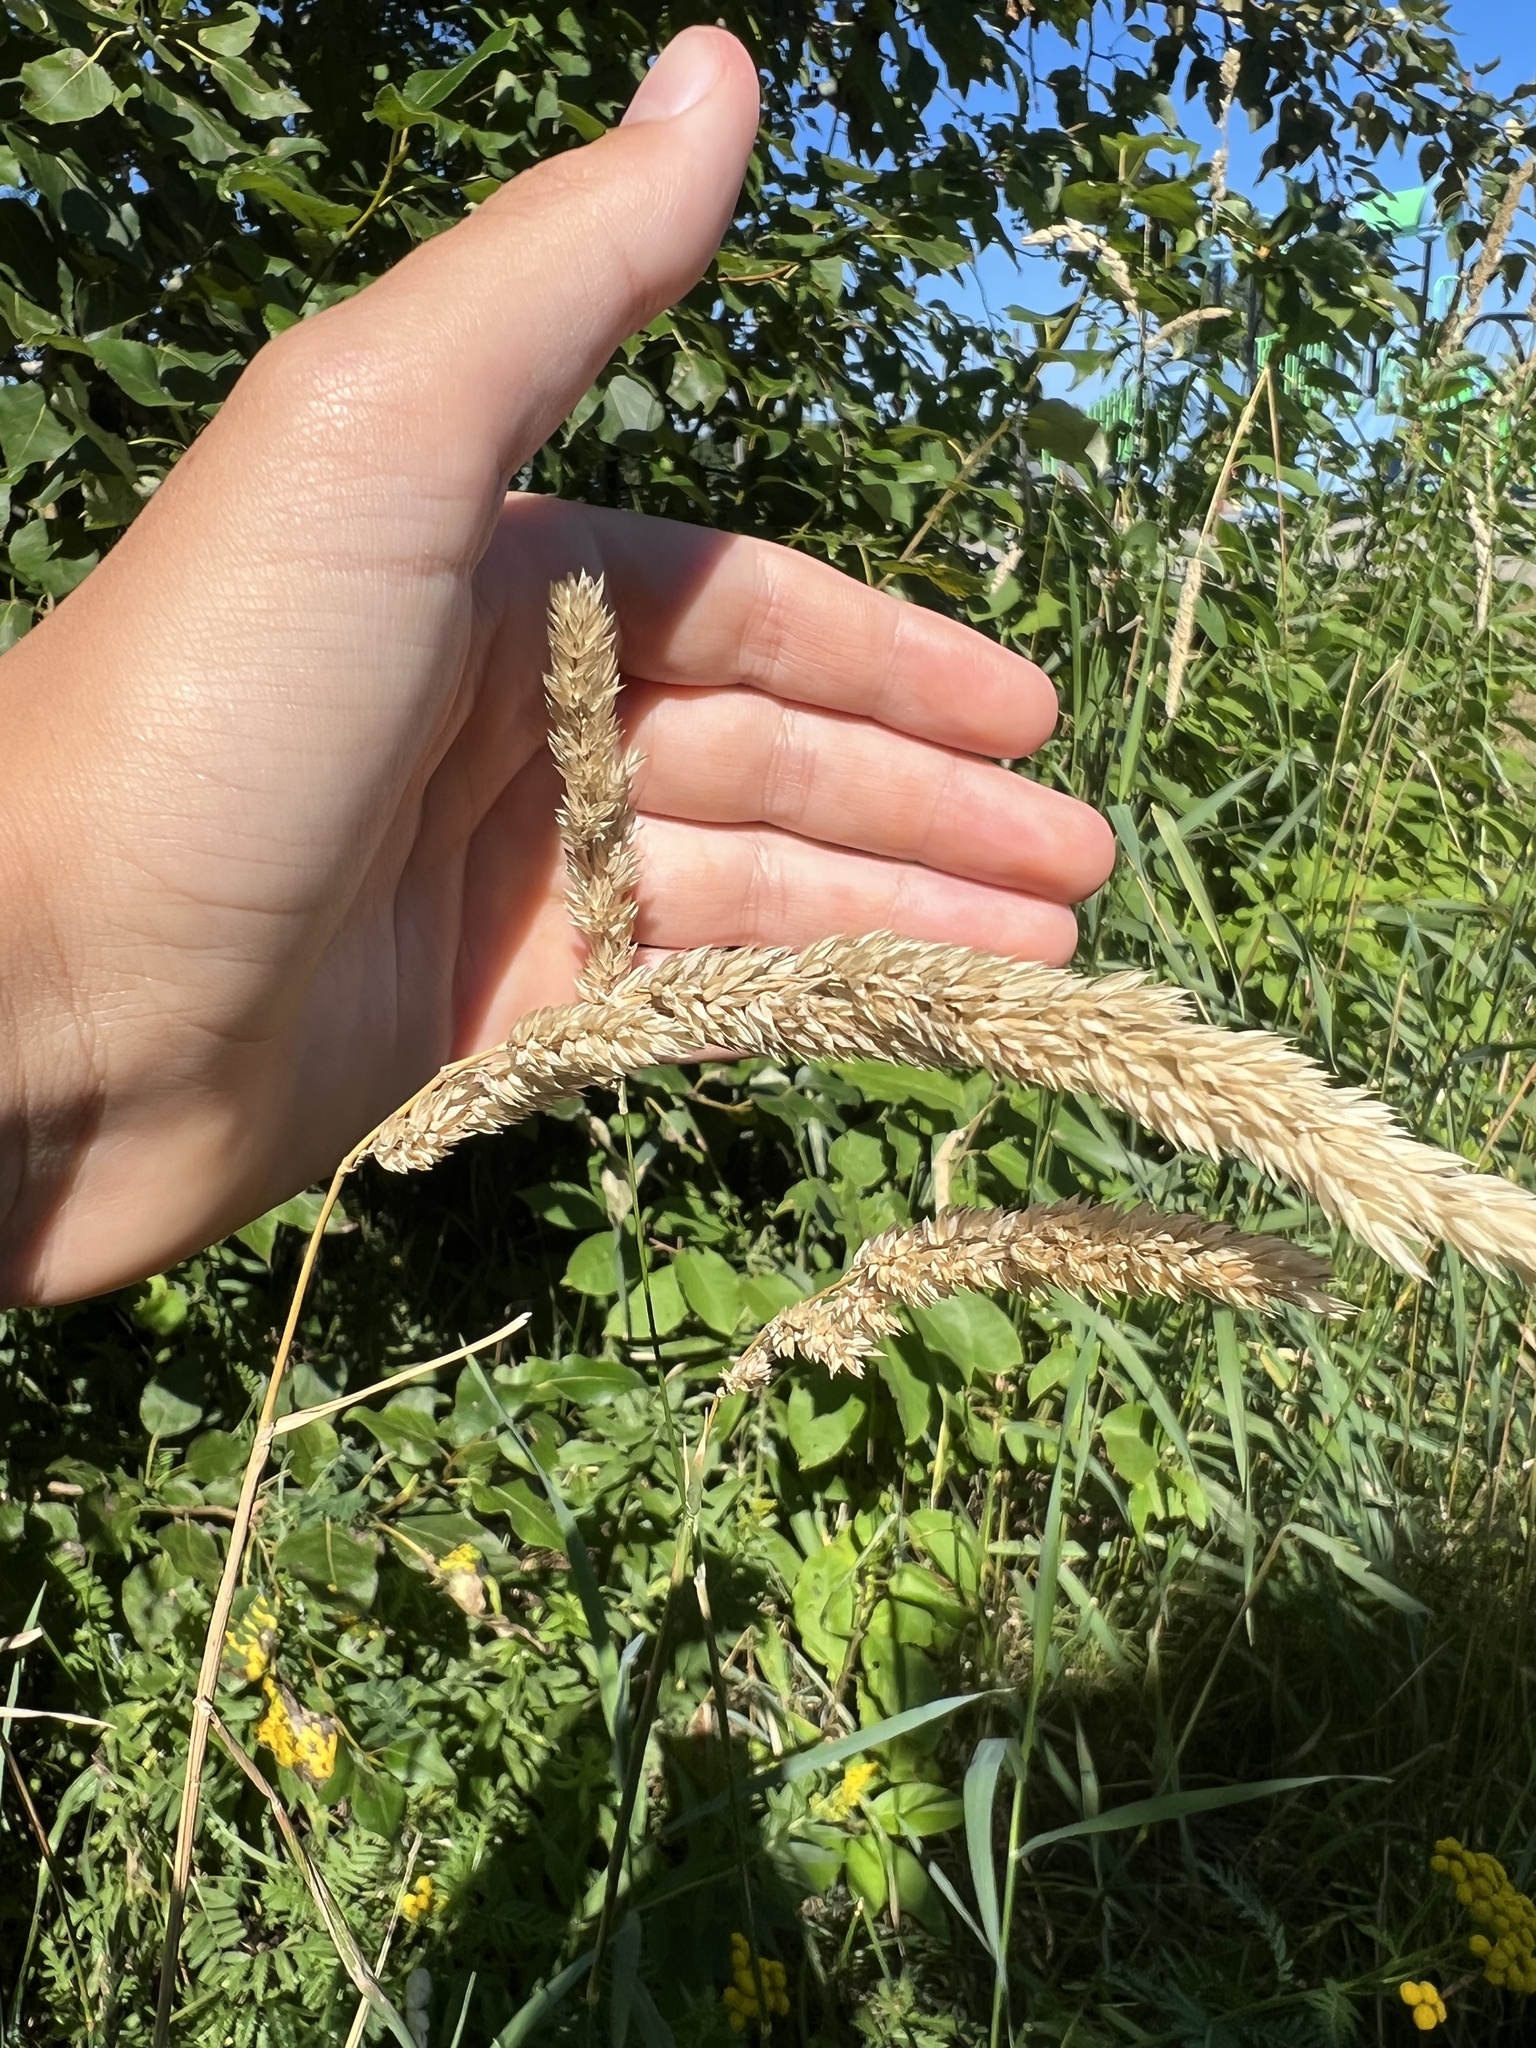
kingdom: Plantae
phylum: Tracheophyta
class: Liliopsida
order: Poales
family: Poaceae
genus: Phalaris
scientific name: Phalaris arundinacea
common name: Reed canary-grass
